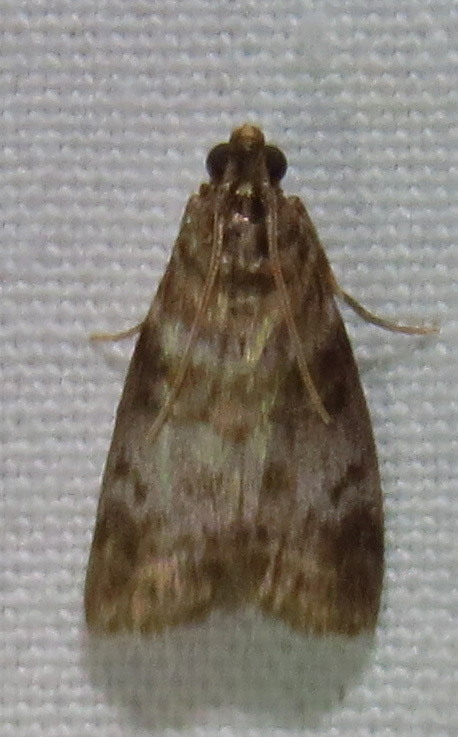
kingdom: Animalia
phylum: Arthropoda
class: Insecta
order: Lepidoptera
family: Pyralidae
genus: Sciota
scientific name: Sciota uvinella
